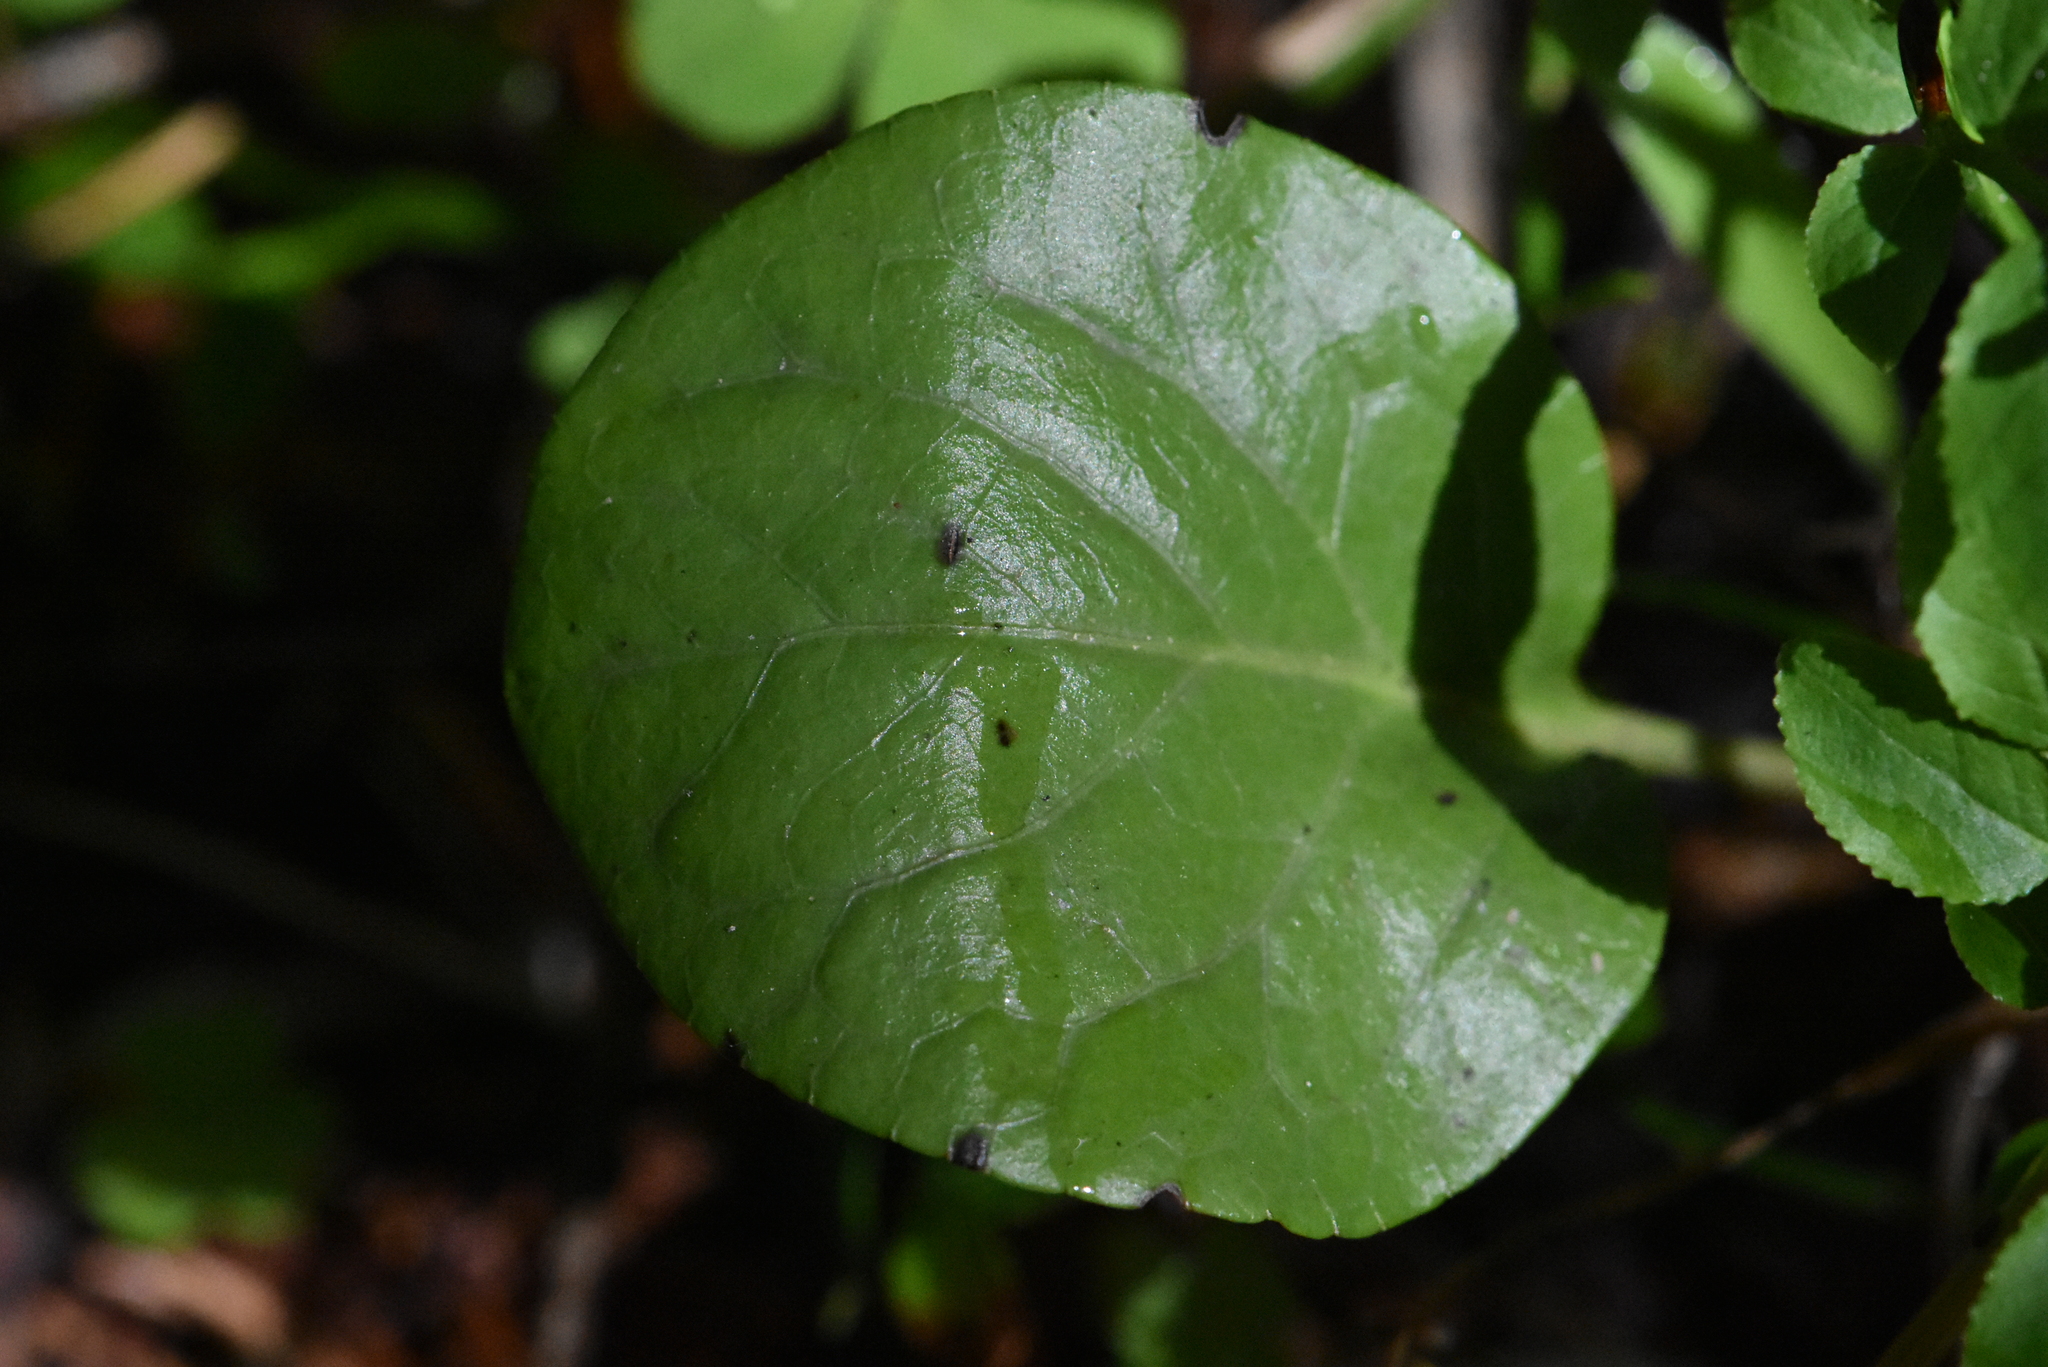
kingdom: Plantae
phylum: Tracheophyta
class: Magnoliopsida
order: Ericales
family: Ericaceae
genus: Pyrola
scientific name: Pyrola rotundifolia
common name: Round-leaved wintergreen
